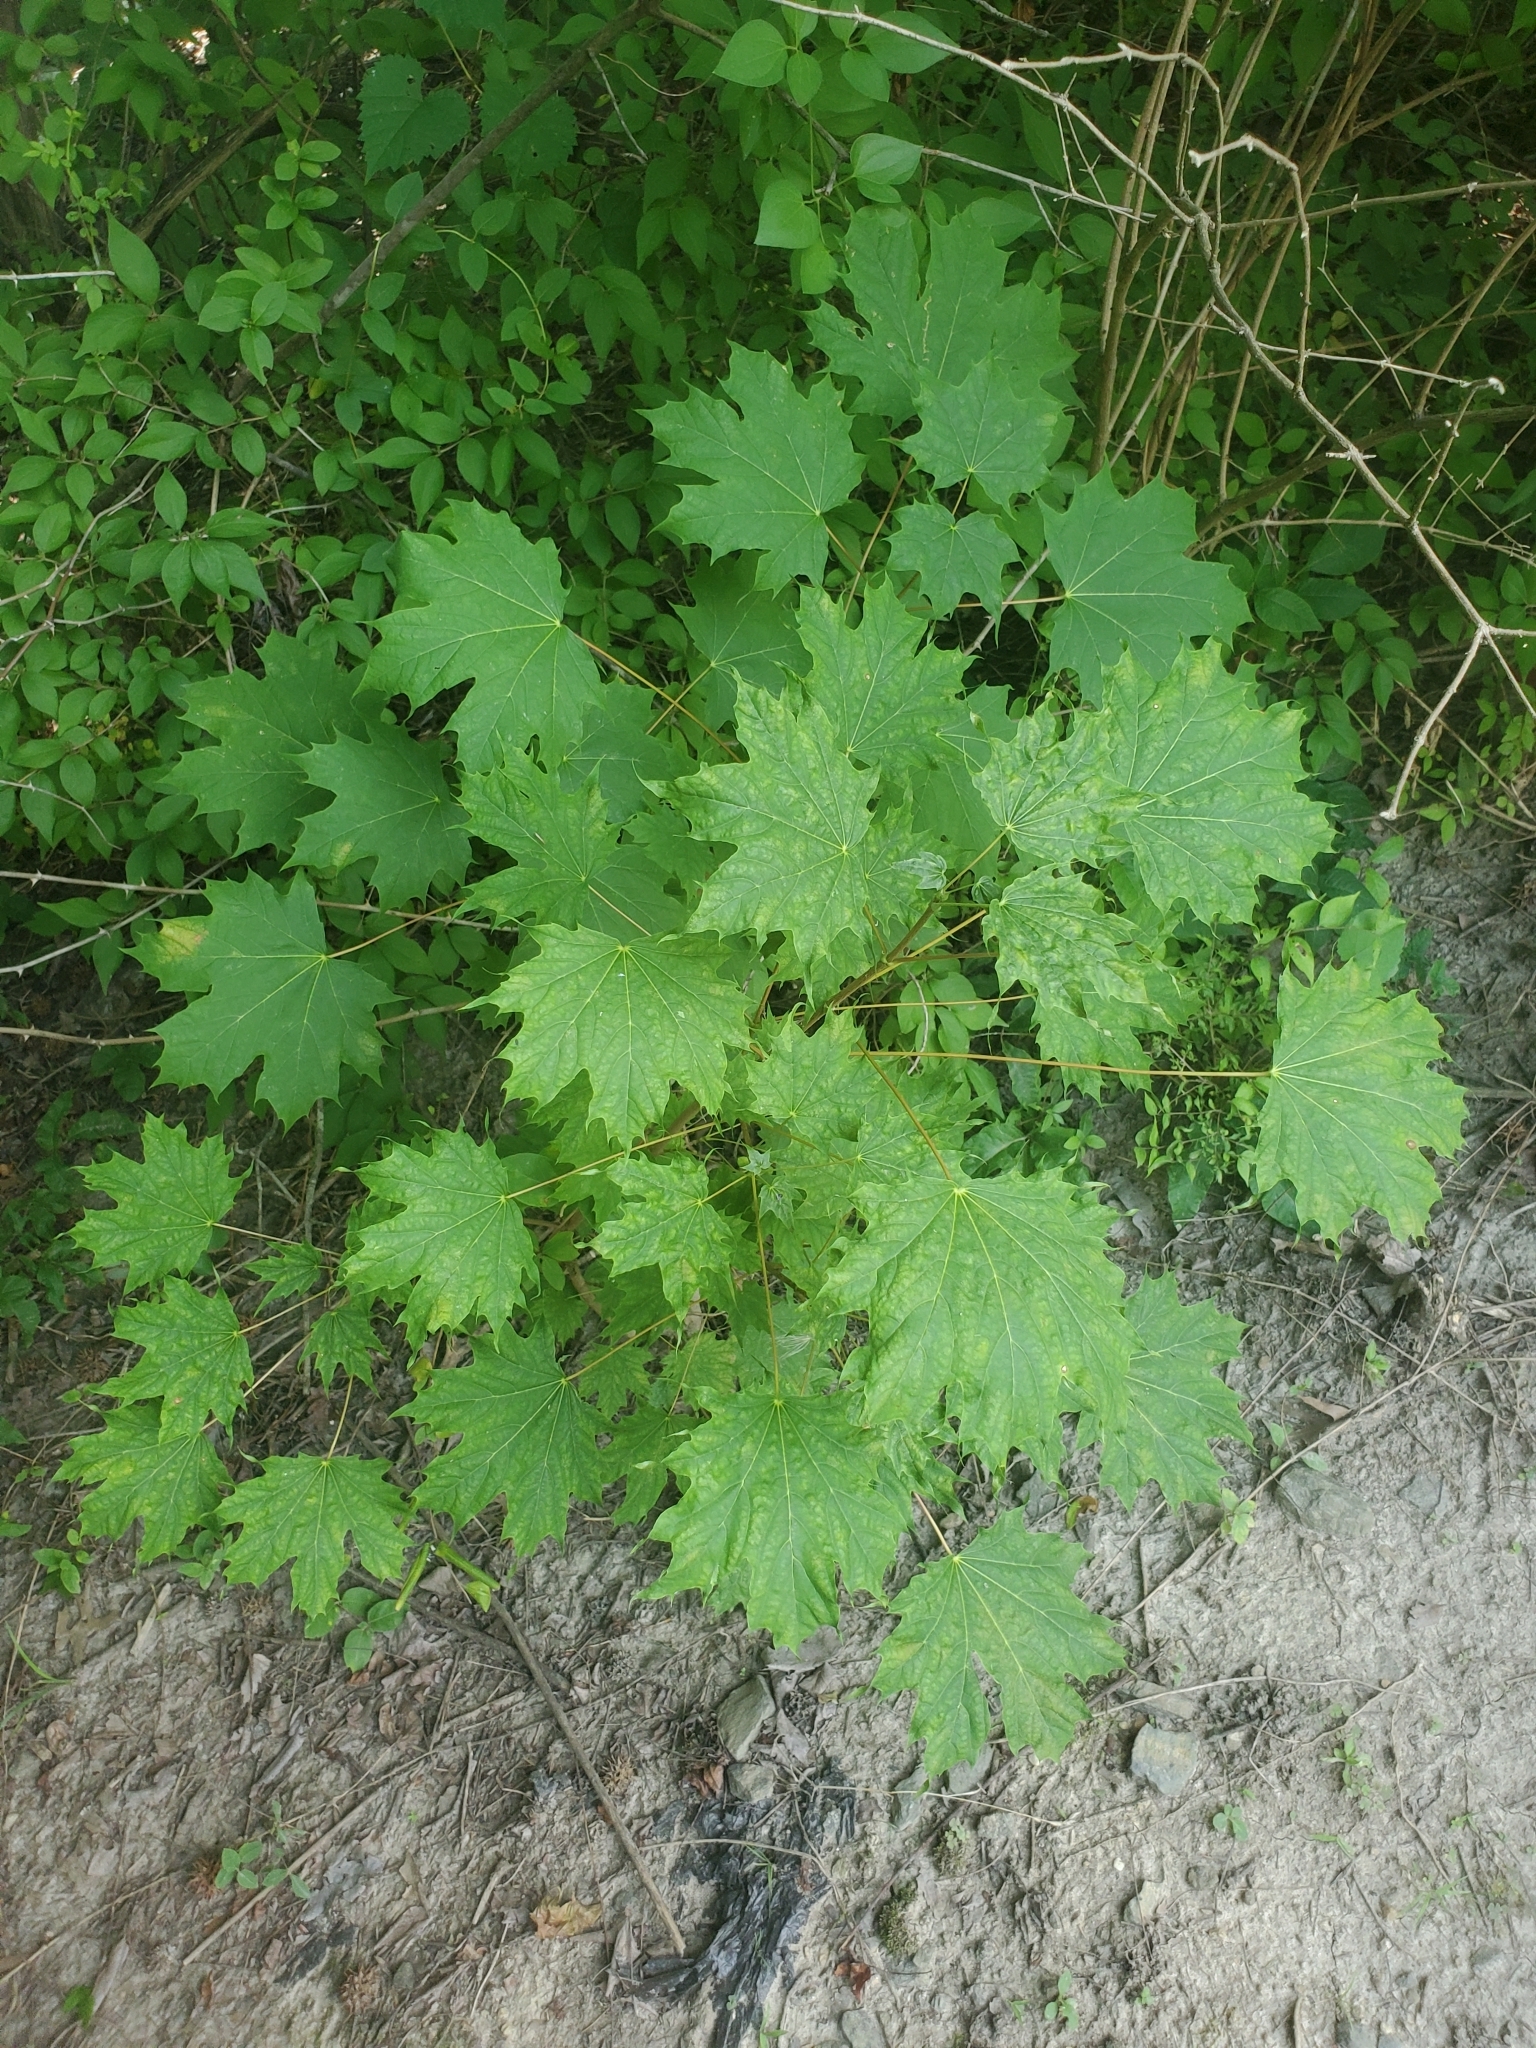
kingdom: Plantae
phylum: Tracheophyta
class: Magnoliopsida
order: Sapindales
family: Sapindaceae
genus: Acer
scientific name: Acer platanoides
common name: Norway maple
